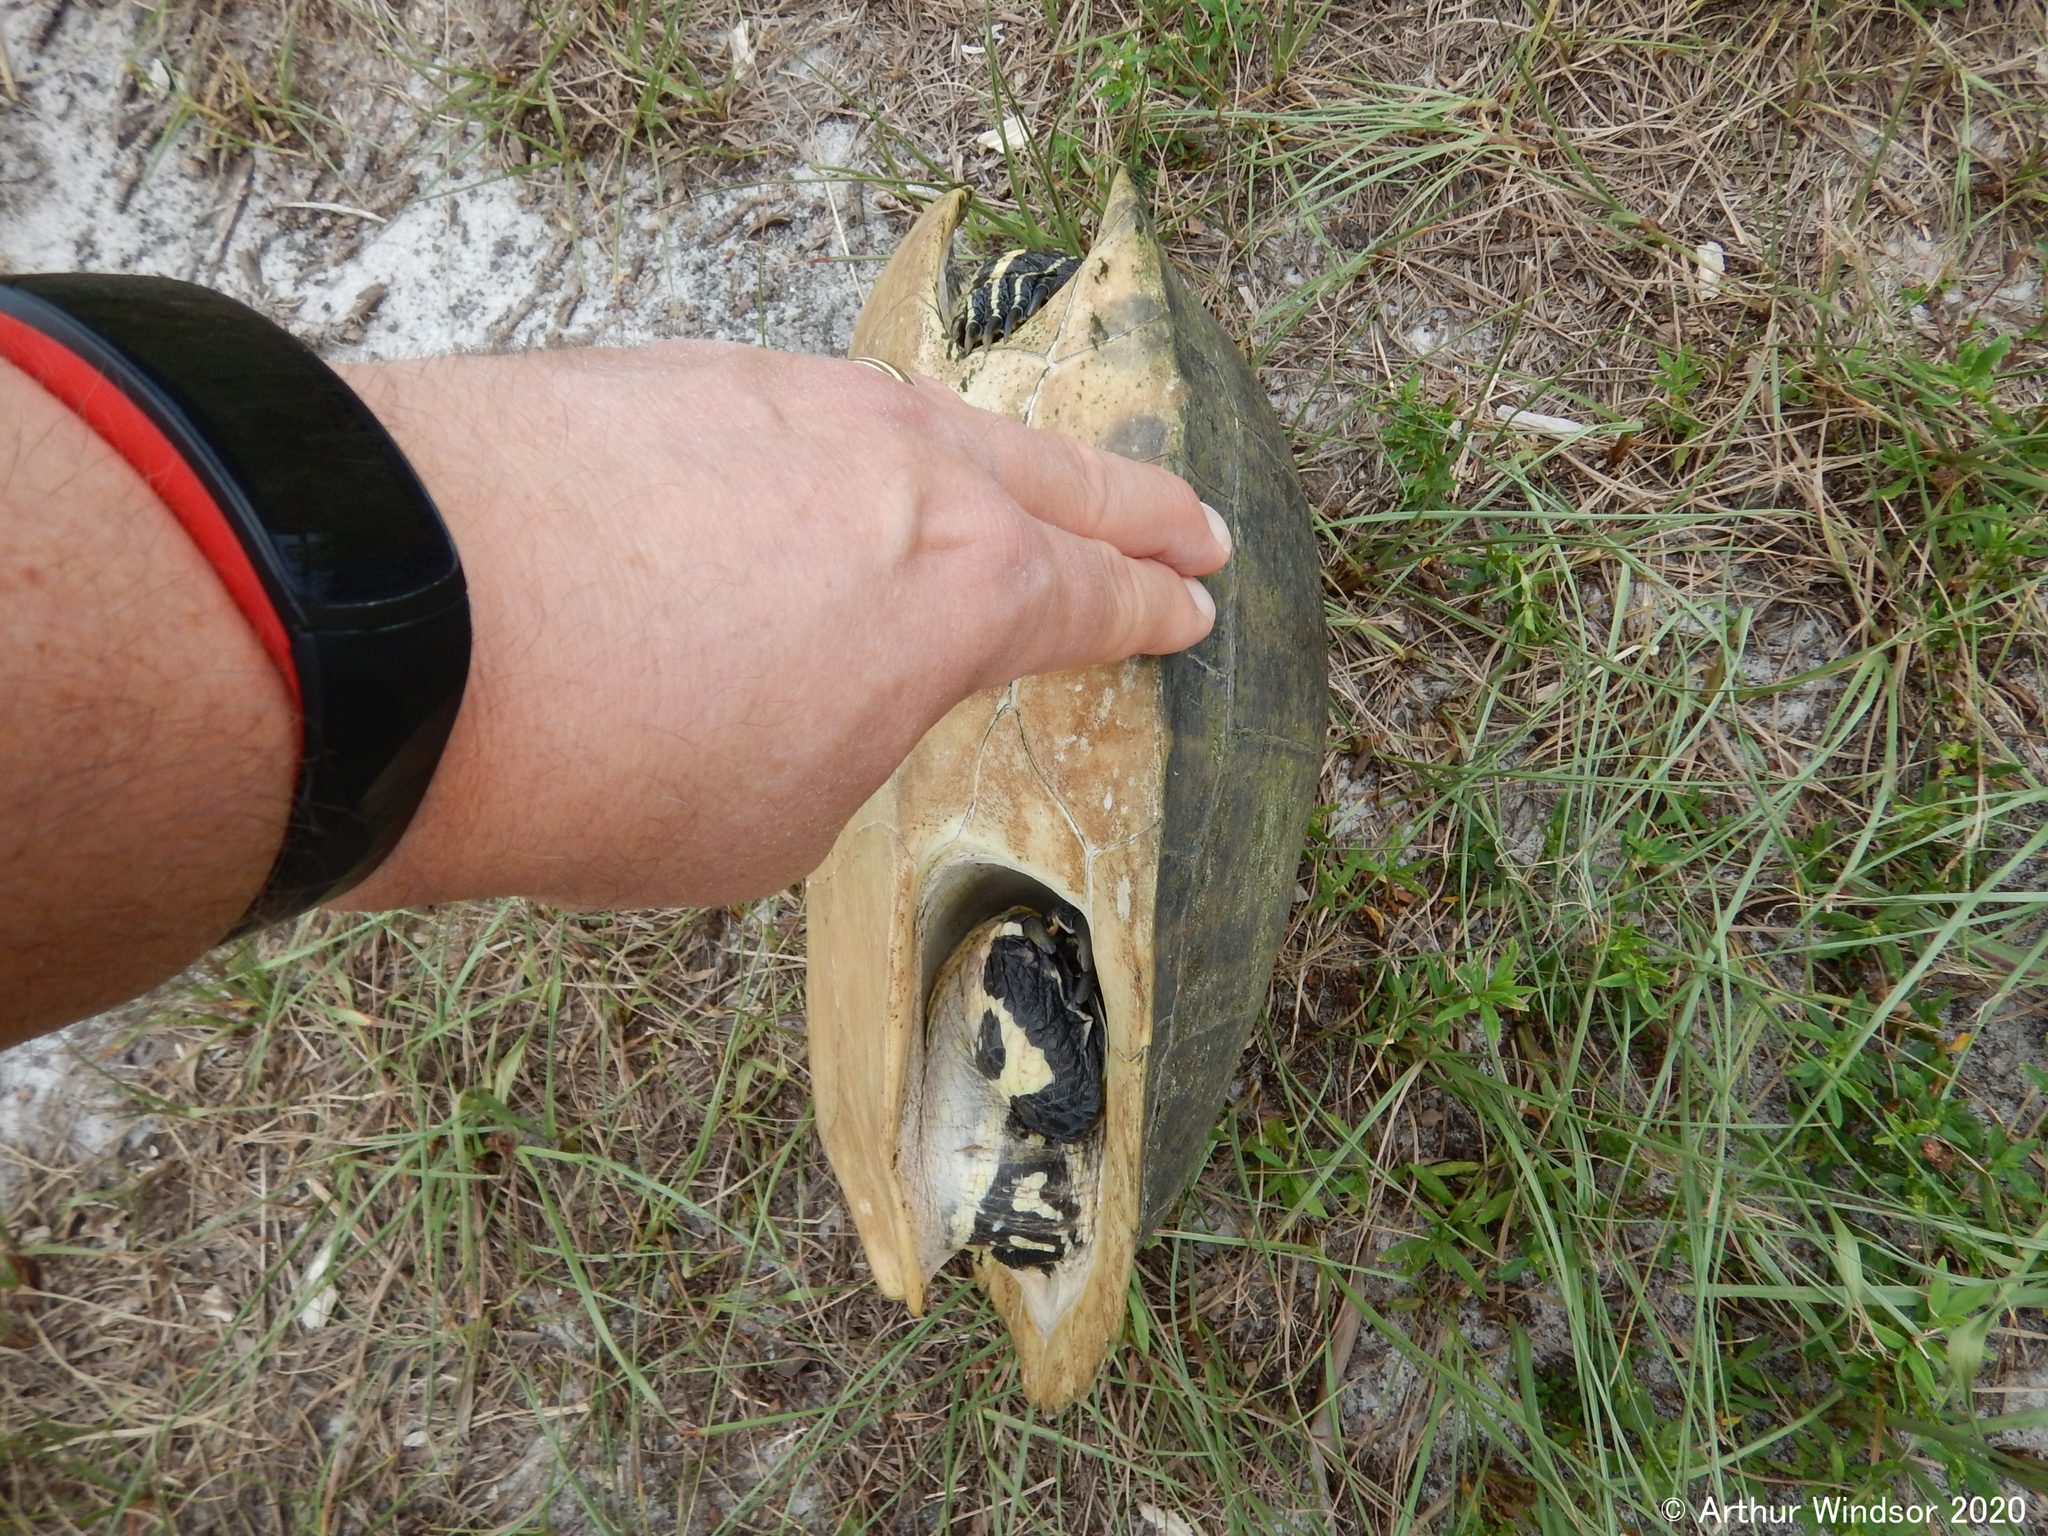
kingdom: Animalia
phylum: Chordata
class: Testudines
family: Emydidae
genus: Pseudemys
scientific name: Pseudemys peninsularis
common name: Peninsula cooter
